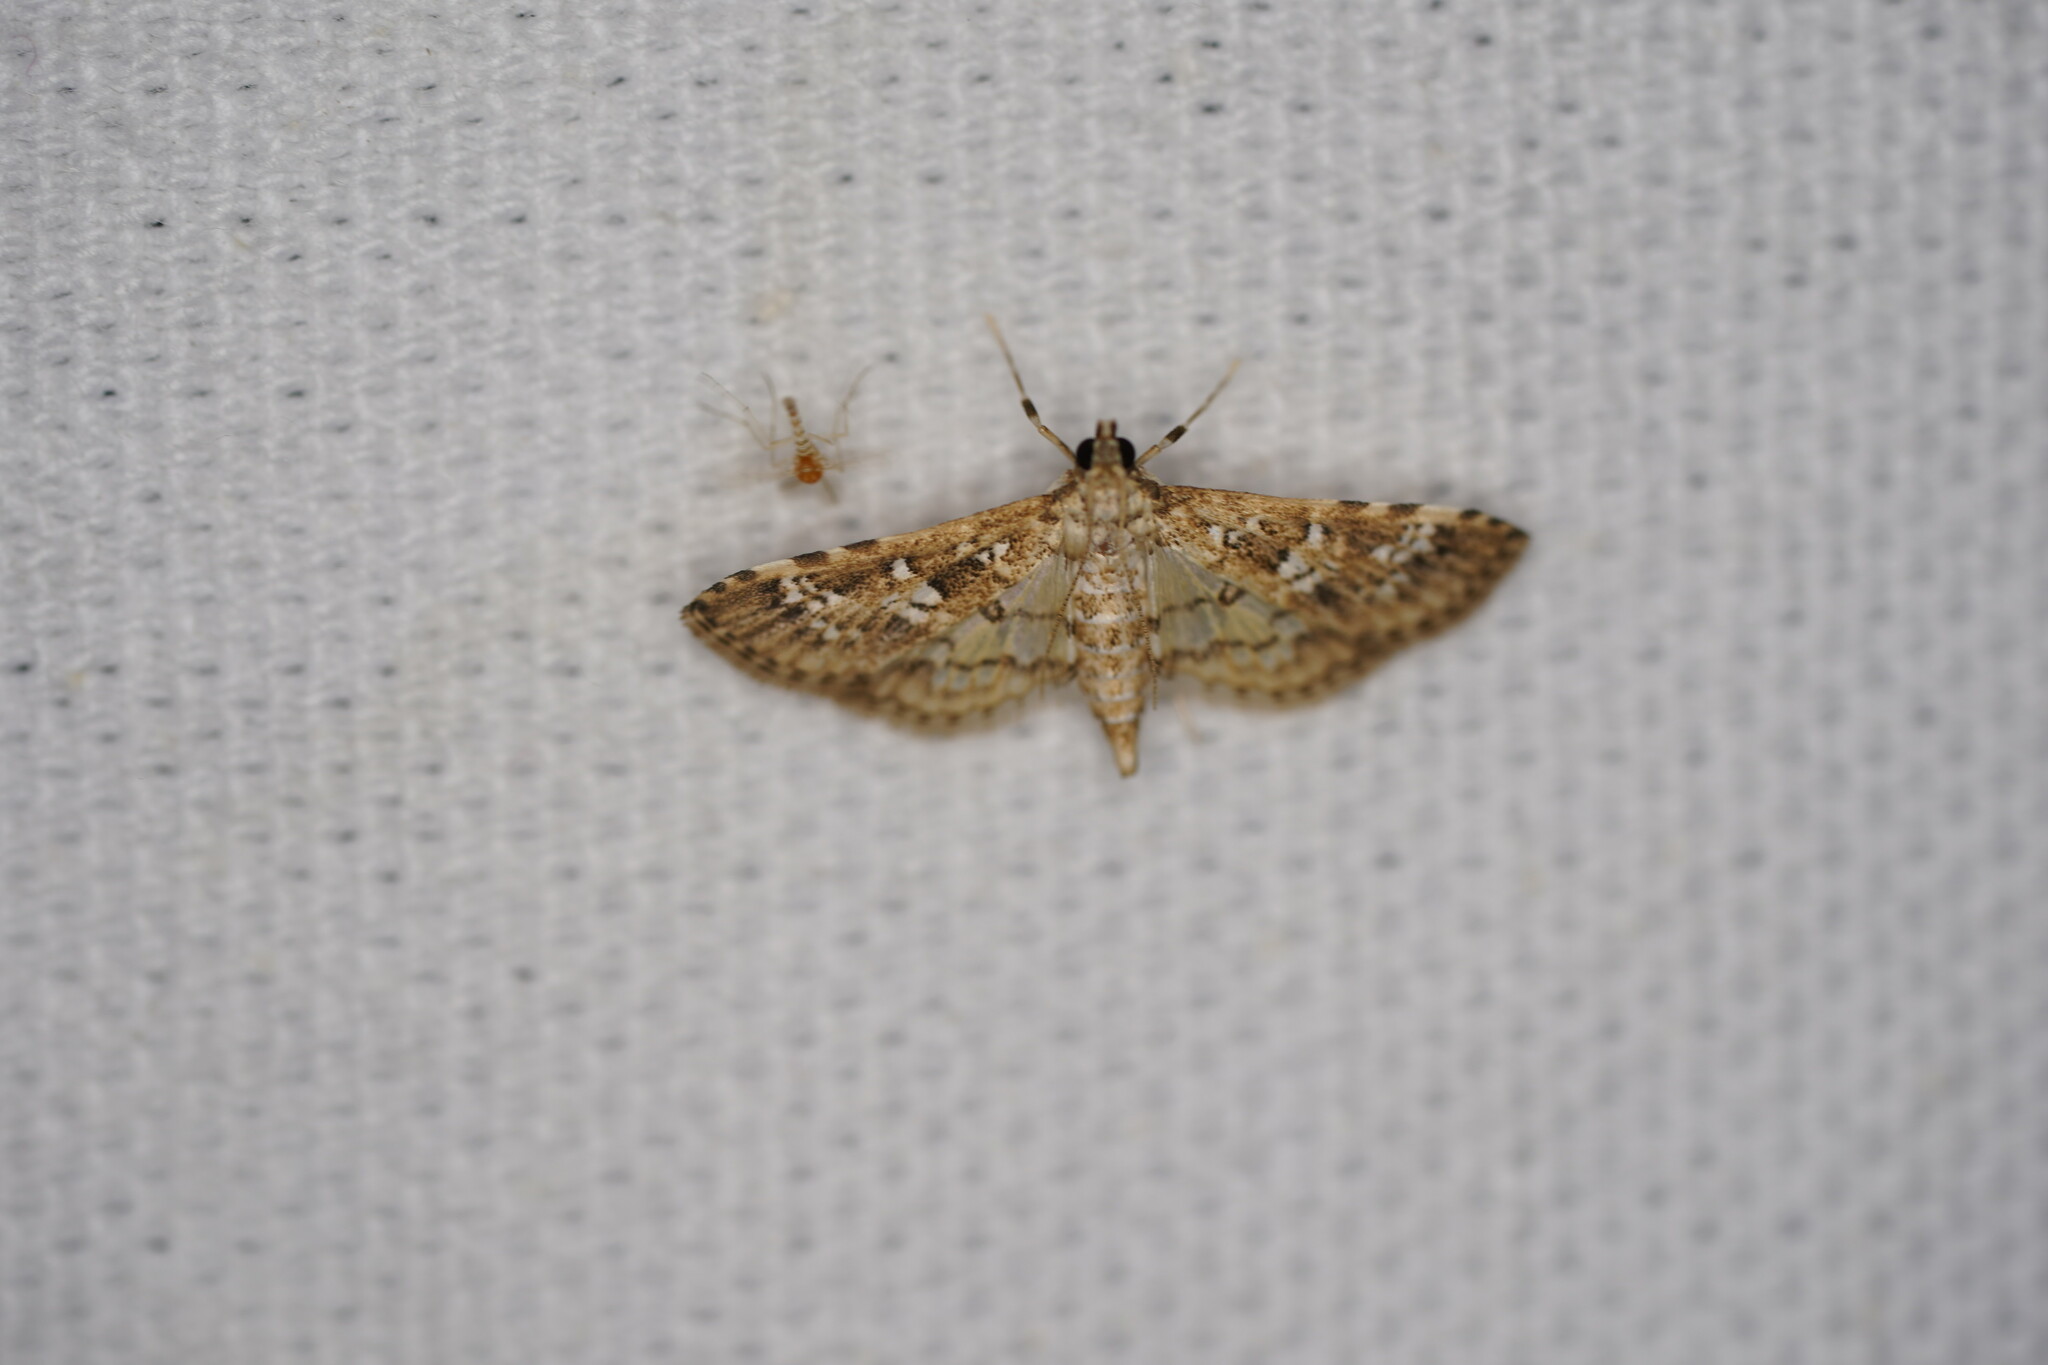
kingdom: Animalia
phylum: Arthropoda
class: Insecta
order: Lepidoptera
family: Crambidae
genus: Samea
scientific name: Samea multiplicalis
